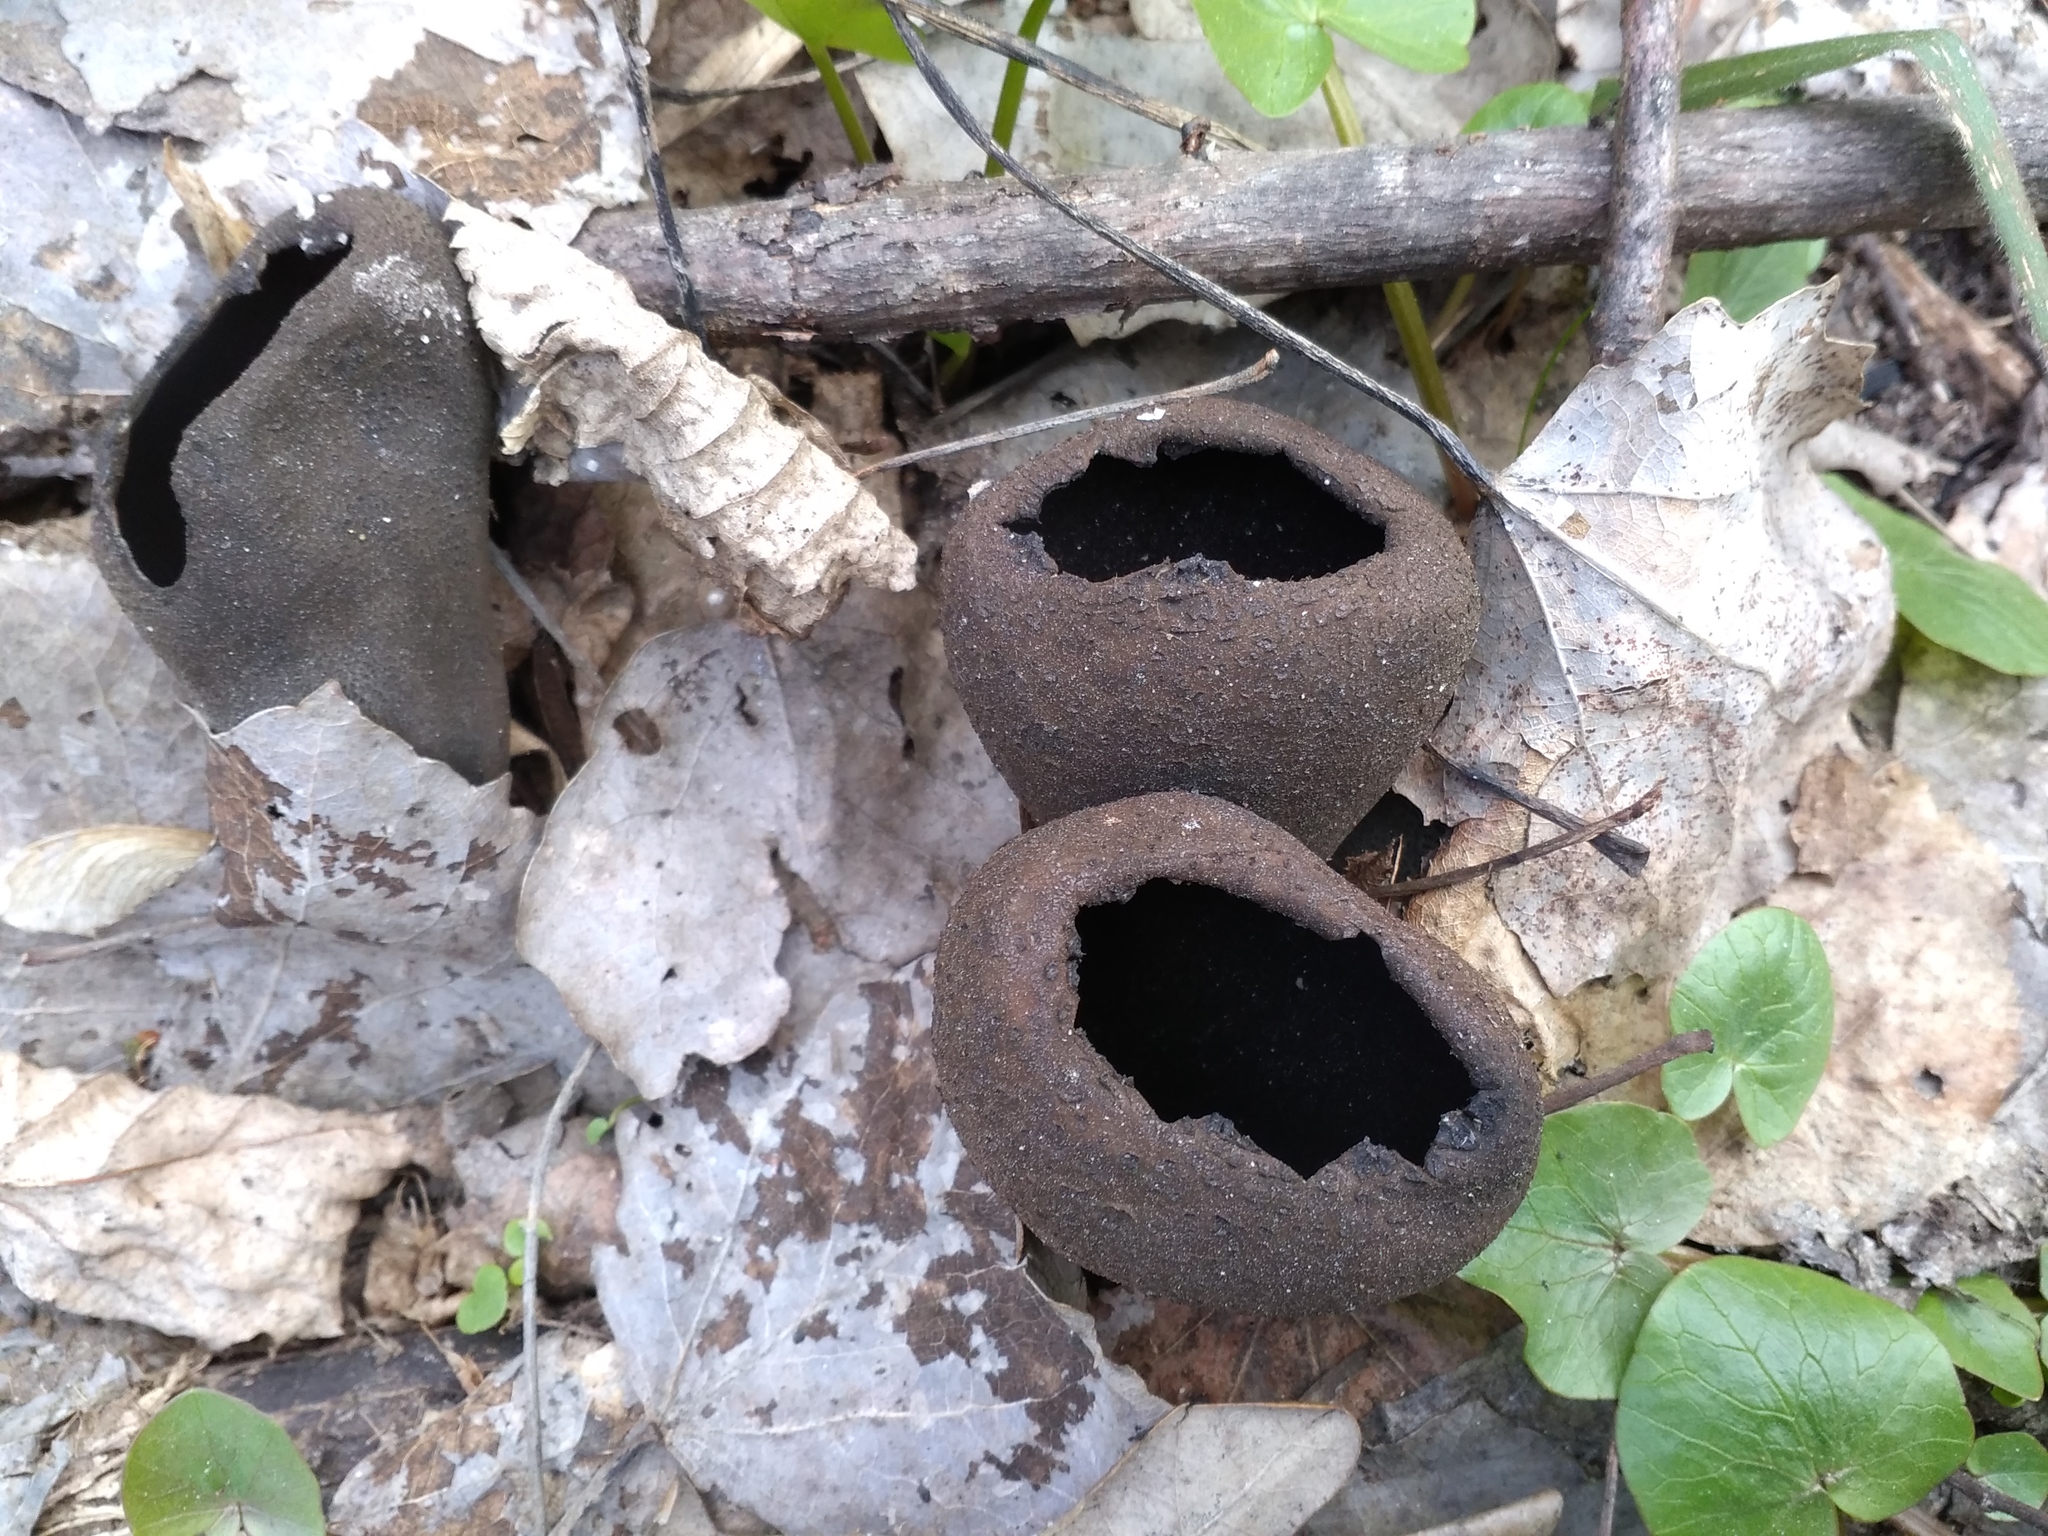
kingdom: Fungi
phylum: Ascomycota
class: Pezizomycetes
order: Pezizales
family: Sarcosomataceae
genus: Urnula
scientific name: Urnula craterium
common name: Devil's urn
